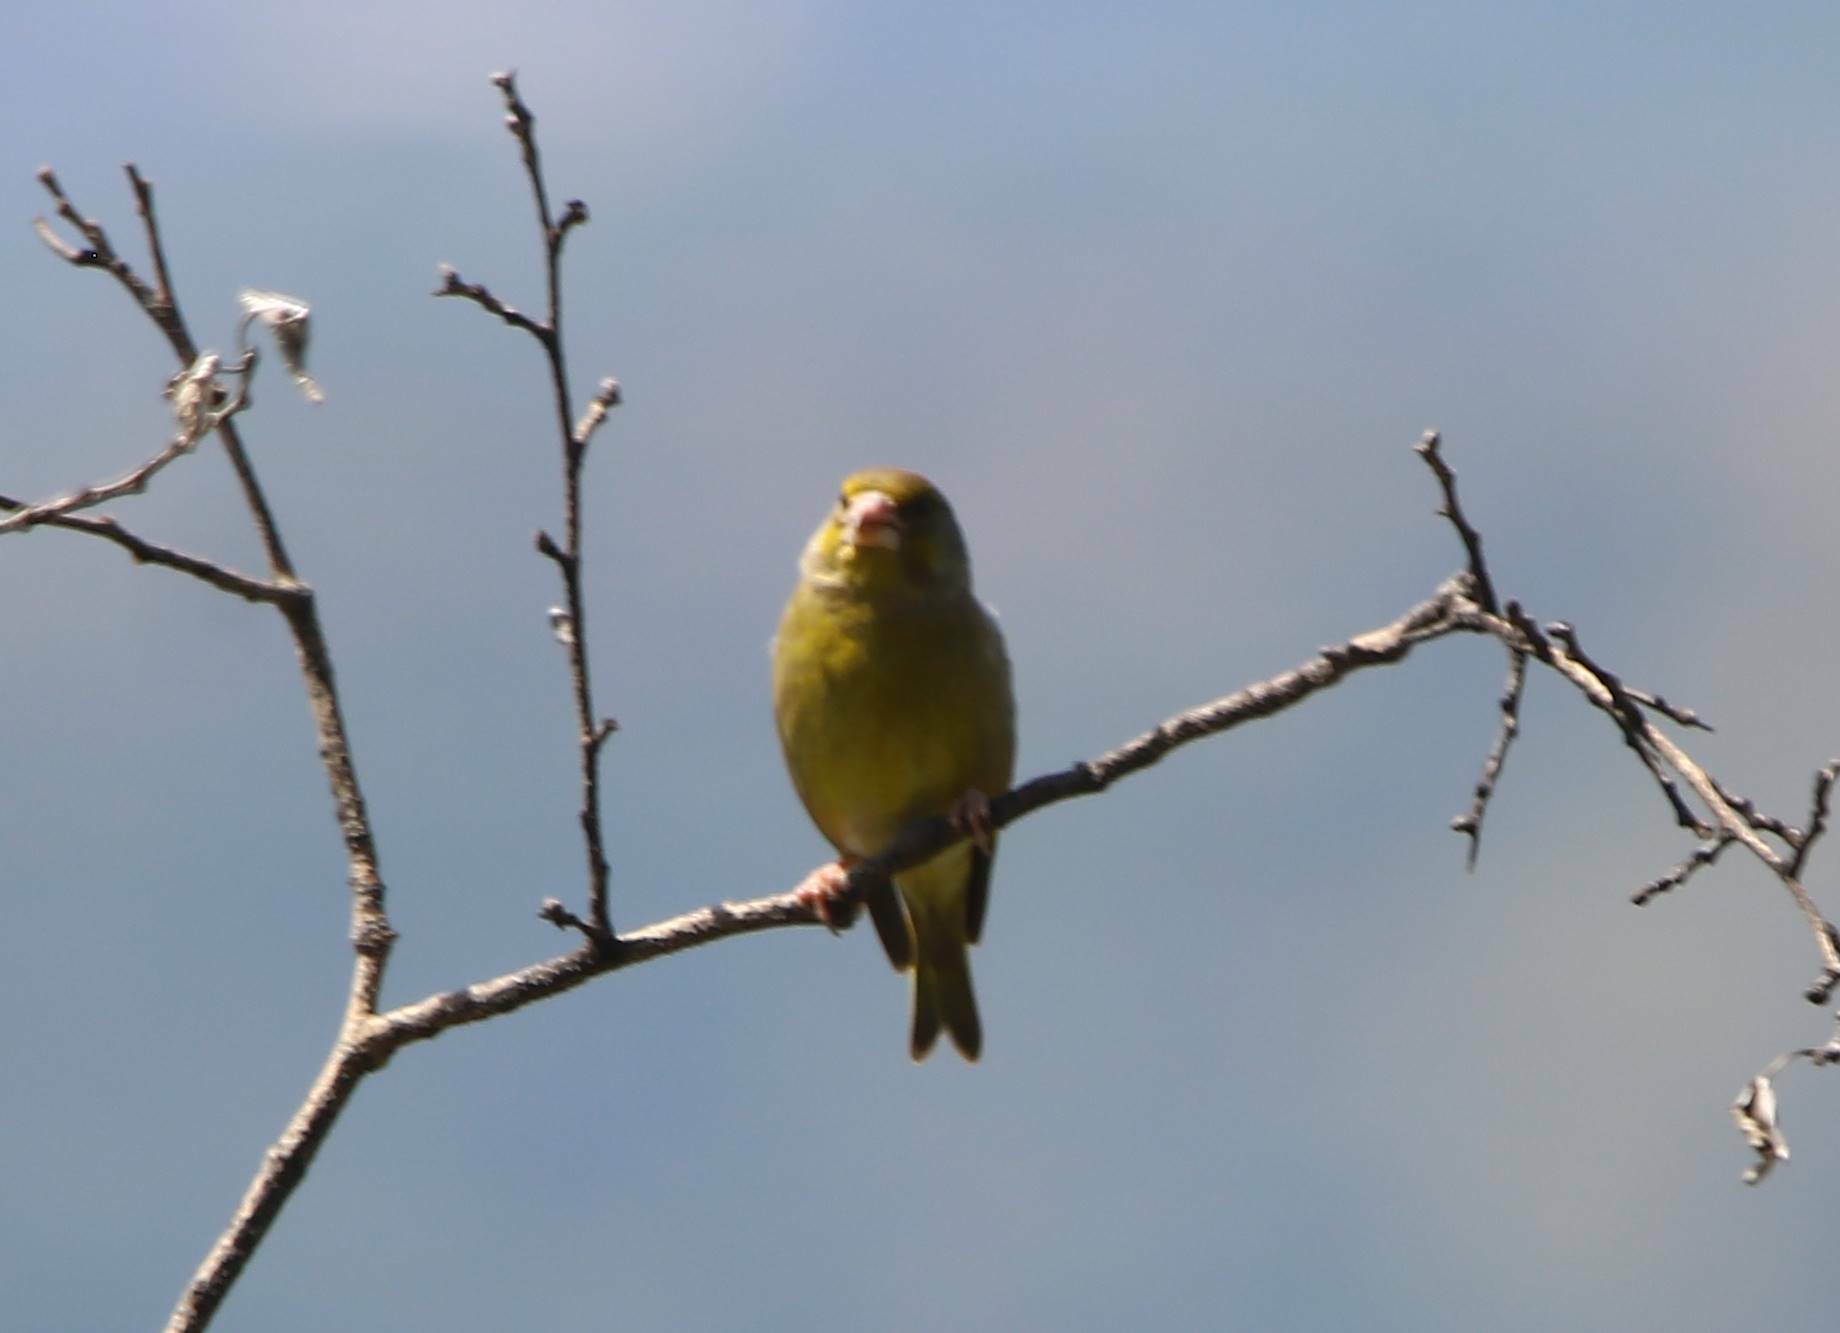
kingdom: Plantae
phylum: Tracheophyta
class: Liliopsida
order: Poales
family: Poaceae
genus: Chloris
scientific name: Chloris chloris
